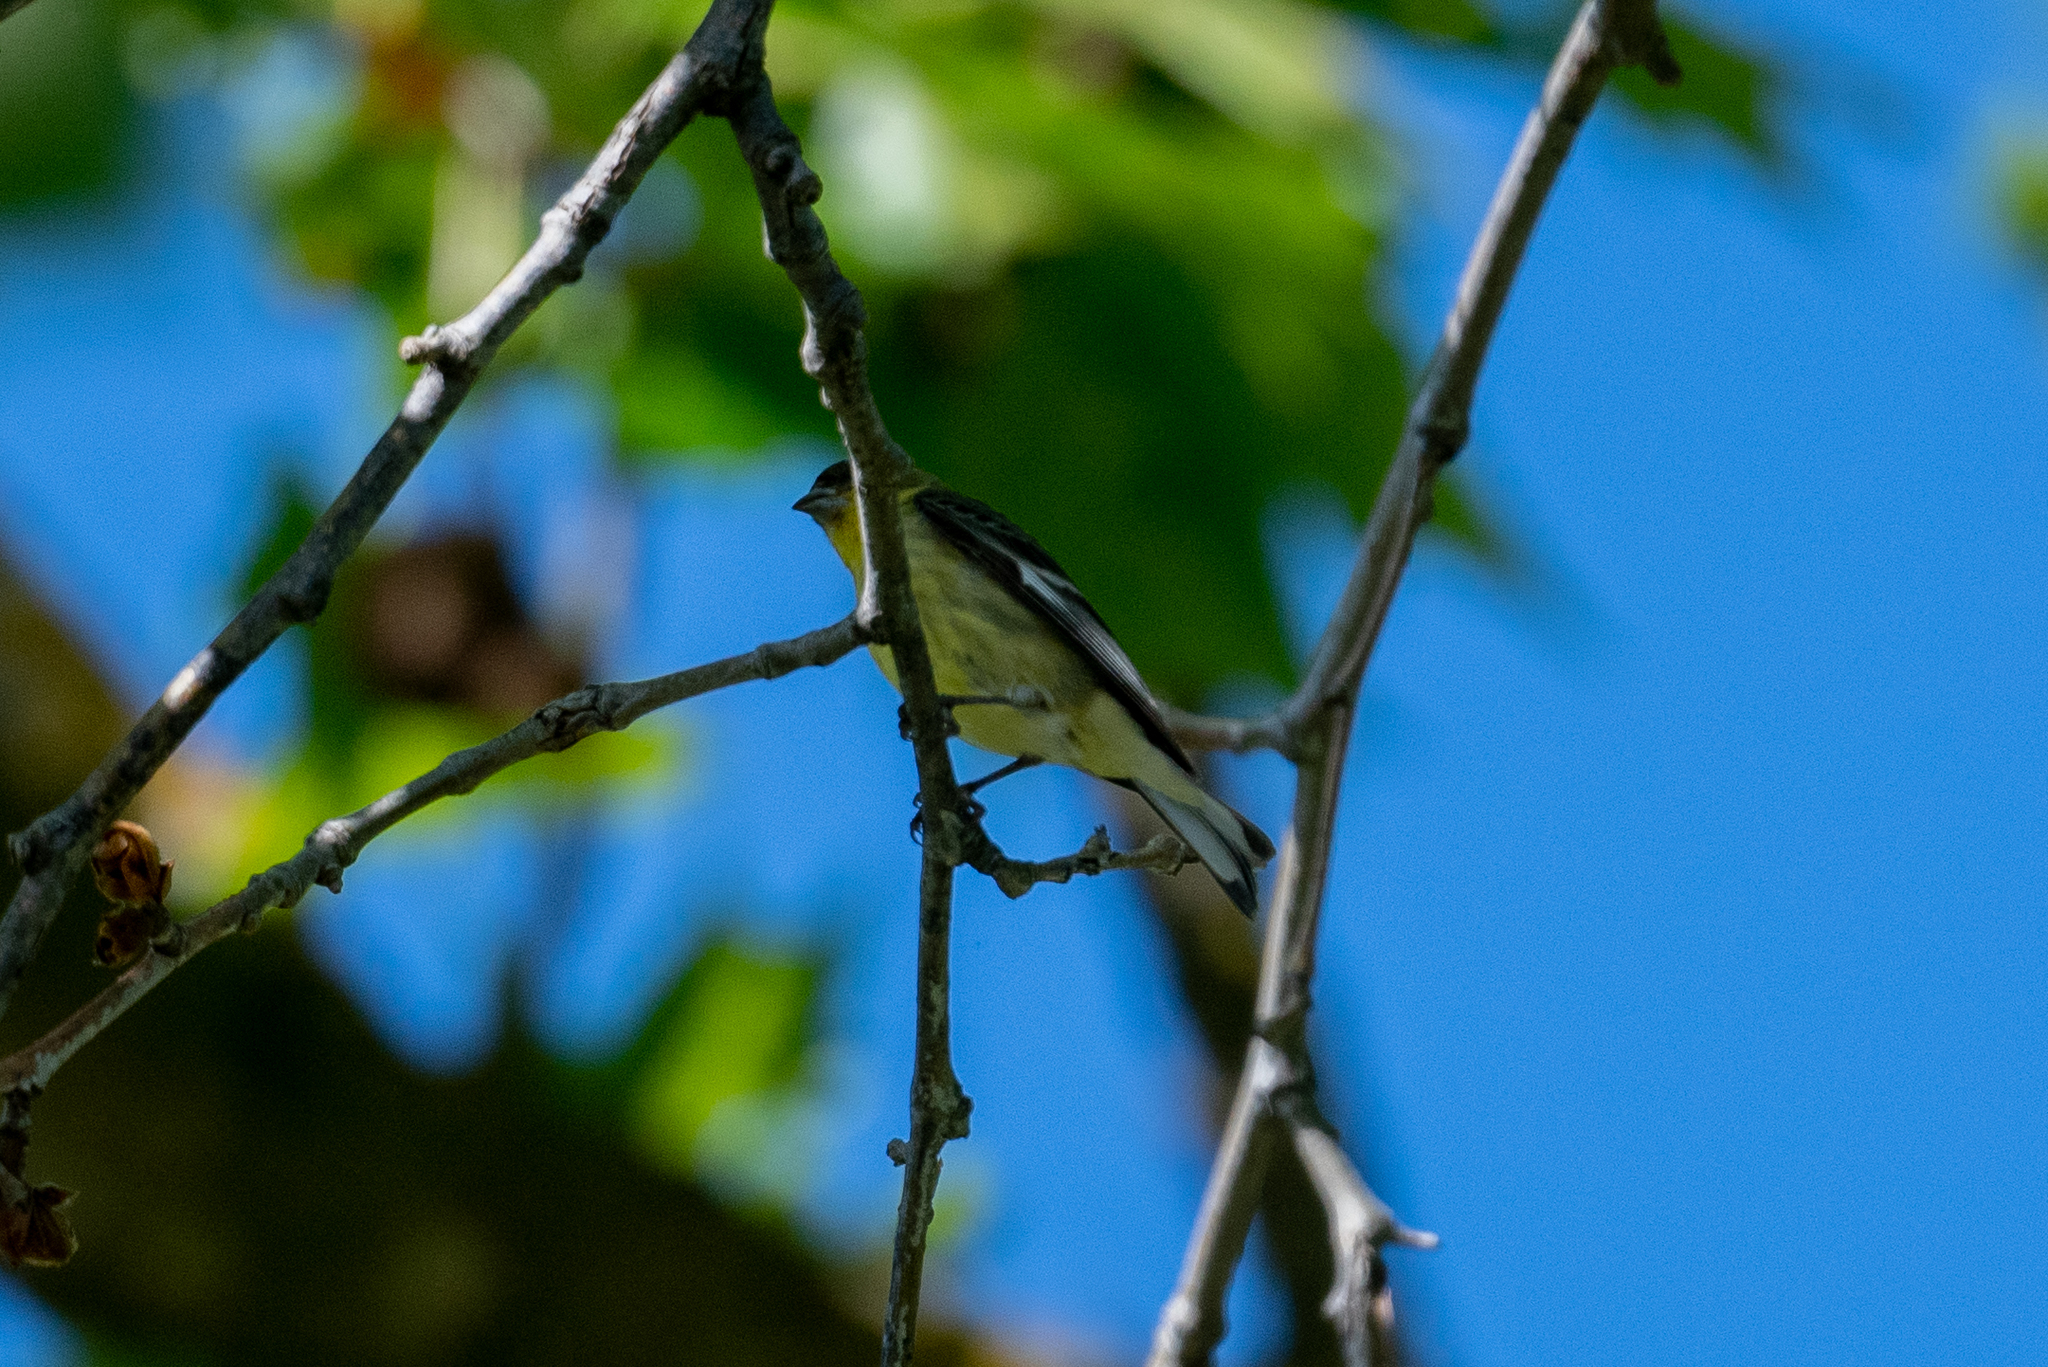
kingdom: Animalia
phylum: Chordata
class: Aves
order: Passeriformes
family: Fringillidae
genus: Spinus
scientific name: Spinus psaltria
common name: Lesser goldfinch
